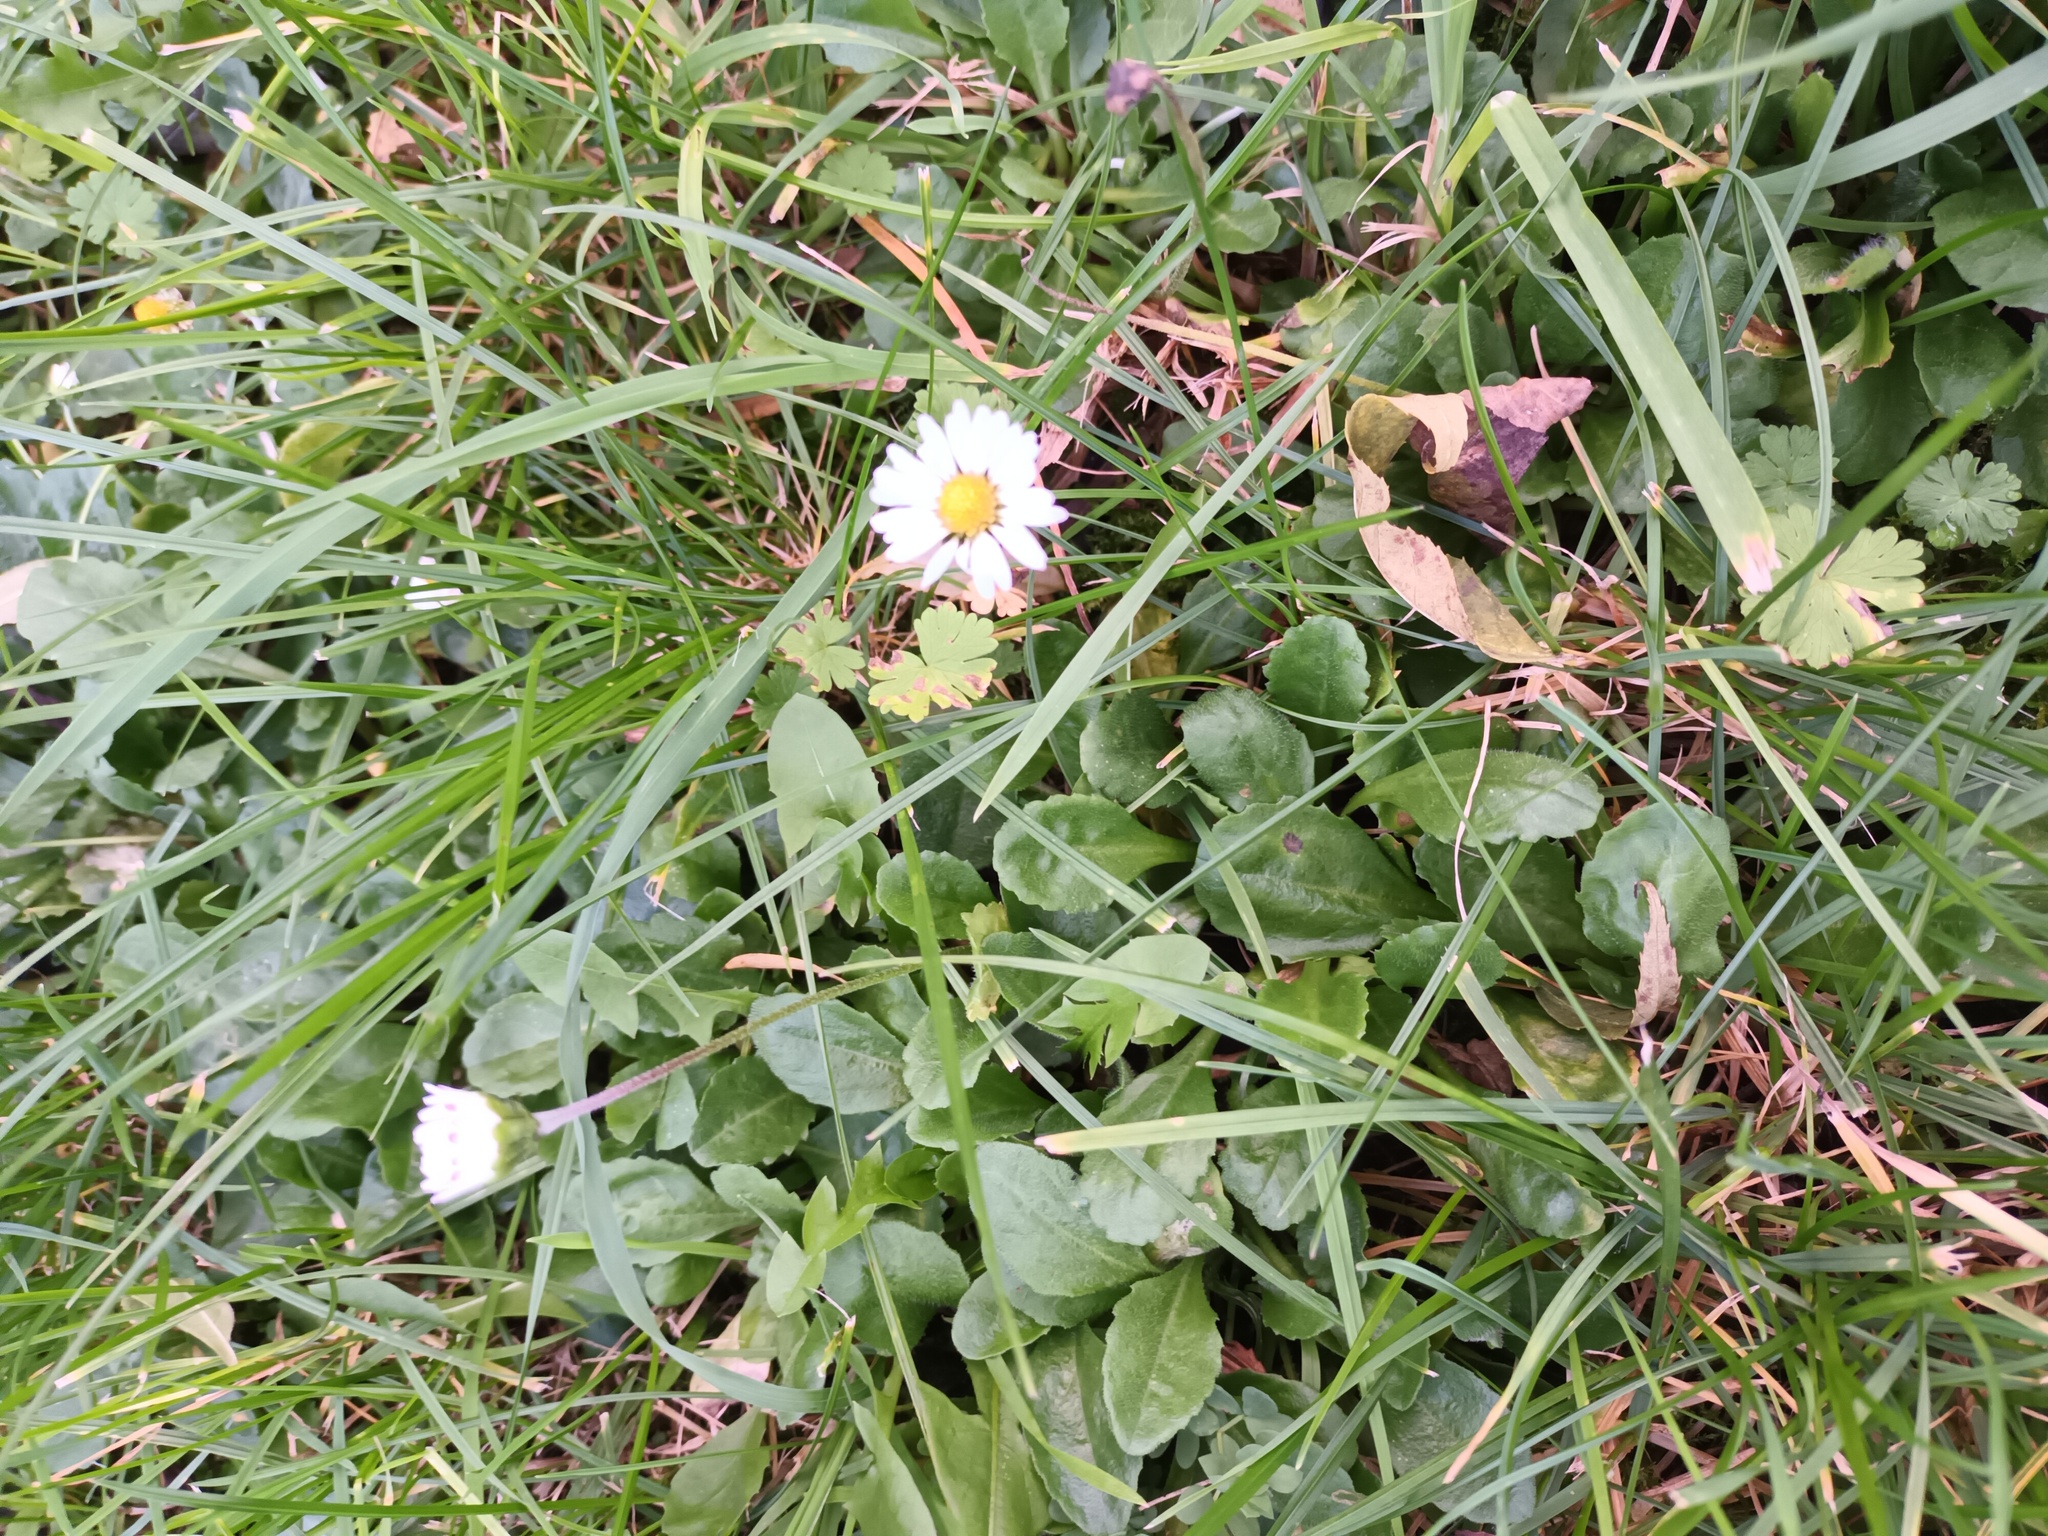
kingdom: Plantae
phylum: Tracheophyta
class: Magnoliopsida
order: Asterales
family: Asteraceae
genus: Bellis
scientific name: Bellis perennis
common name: Lawndaisy
